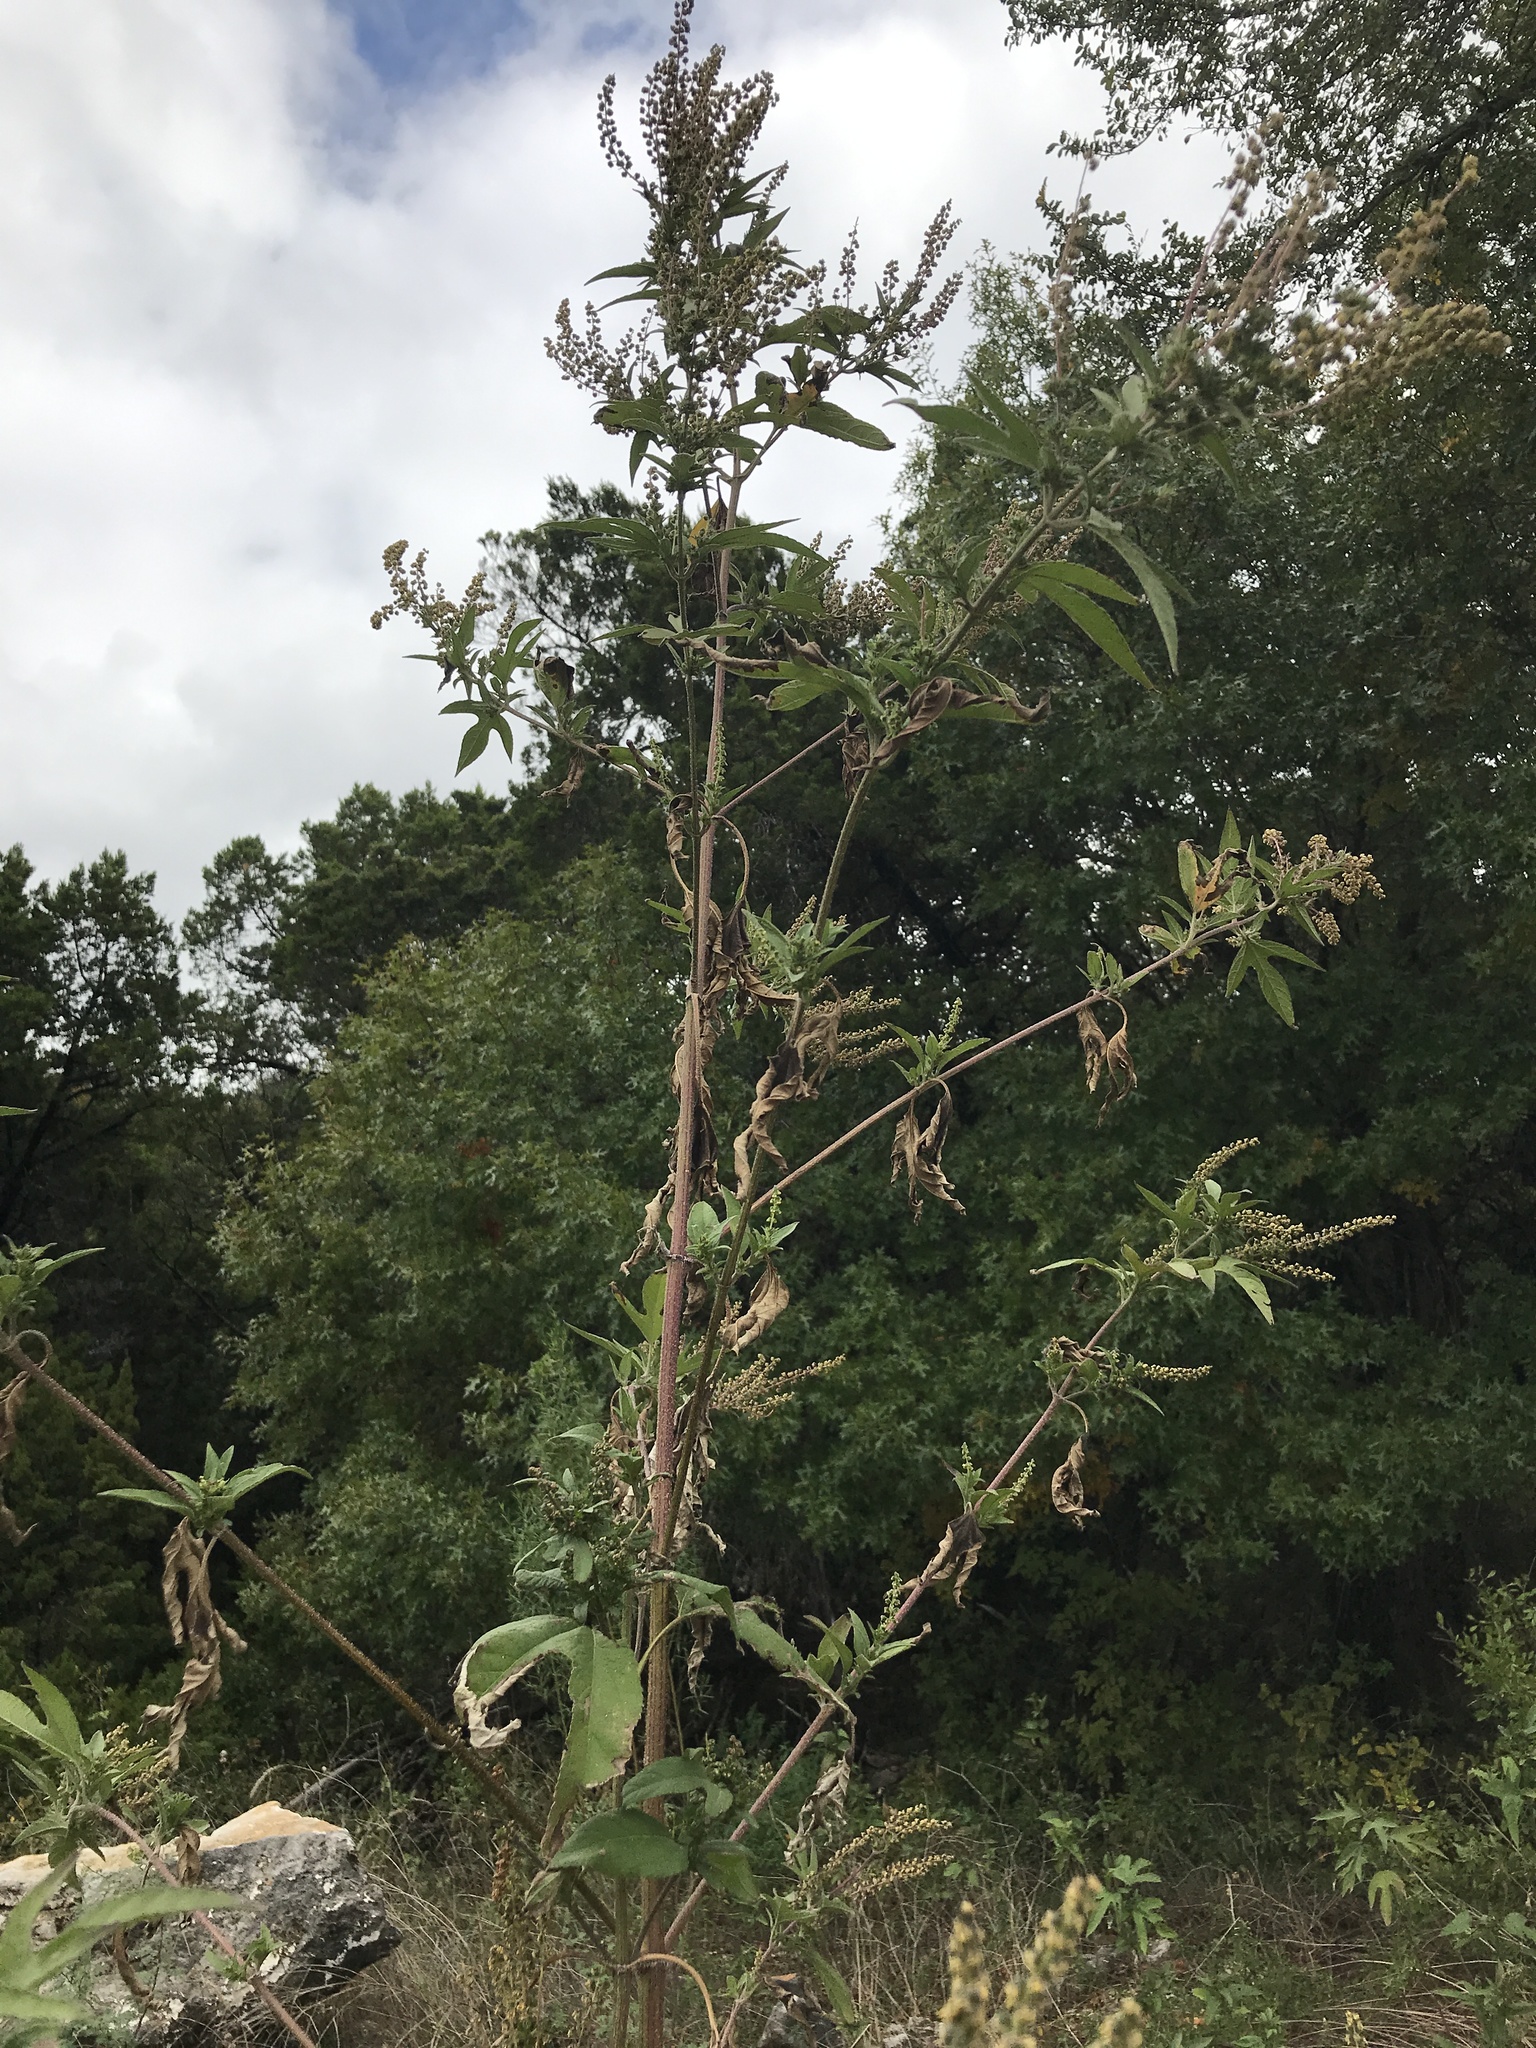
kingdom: Plantae
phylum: Tracheophyta
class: Magnoliopsida
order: Asterales
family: Asteraceae
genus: Ambrosia
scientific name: Ambrosia trifida
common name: Giant ragweed
